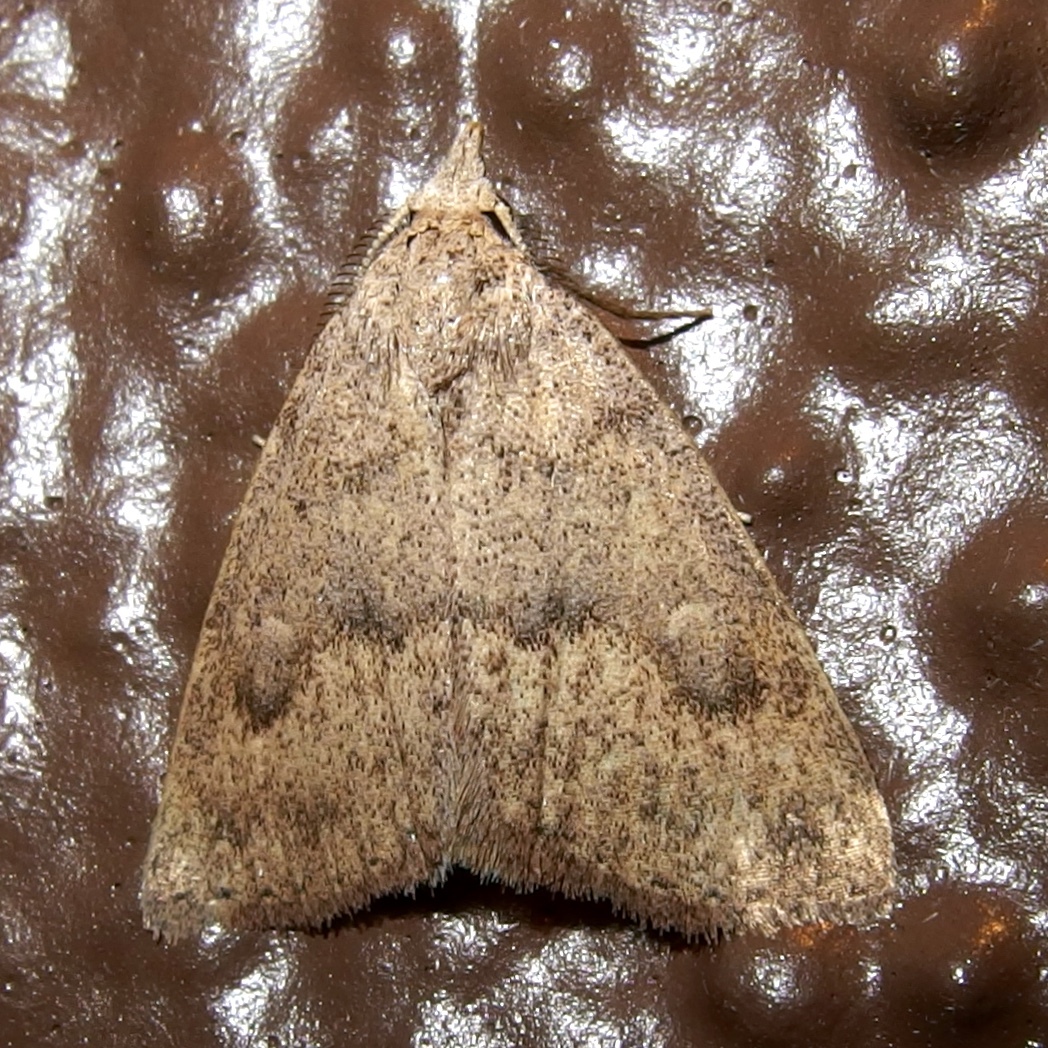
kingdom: Animalia
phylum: Arthropoda
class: Insecta
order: Lepidoptera
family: Erebidae
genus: Pseudorgyia
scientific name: Pseudorgyia russula
